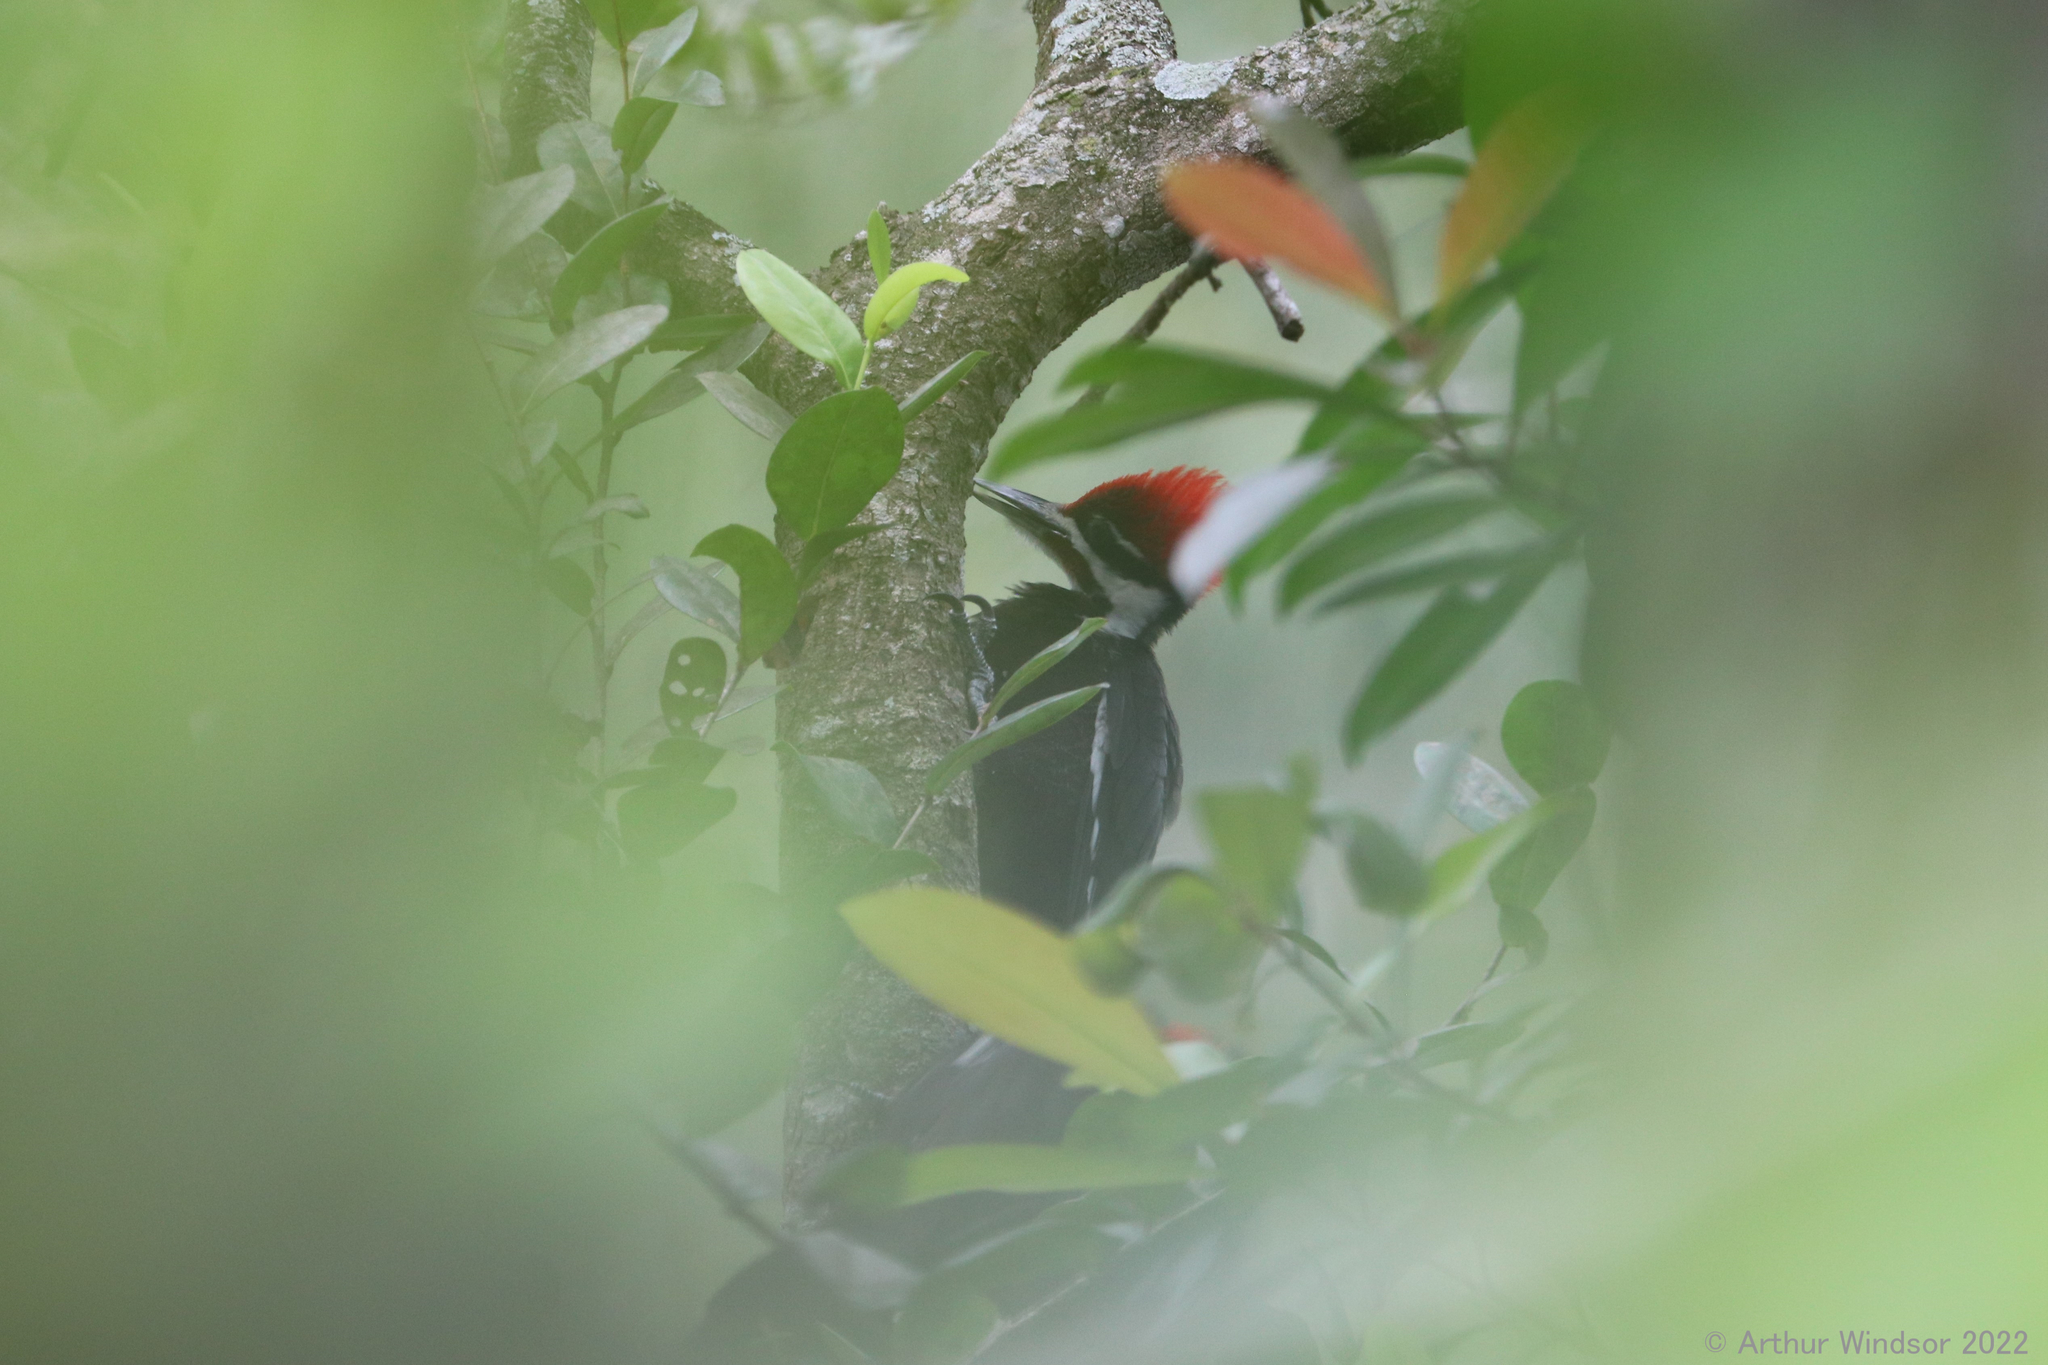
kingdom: Animalia
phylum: Chordata
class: Aves
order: Piciformes
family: Picidae
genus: Dryocopus
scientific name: Dryocopus pileatus
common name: Pileated woodpecker
